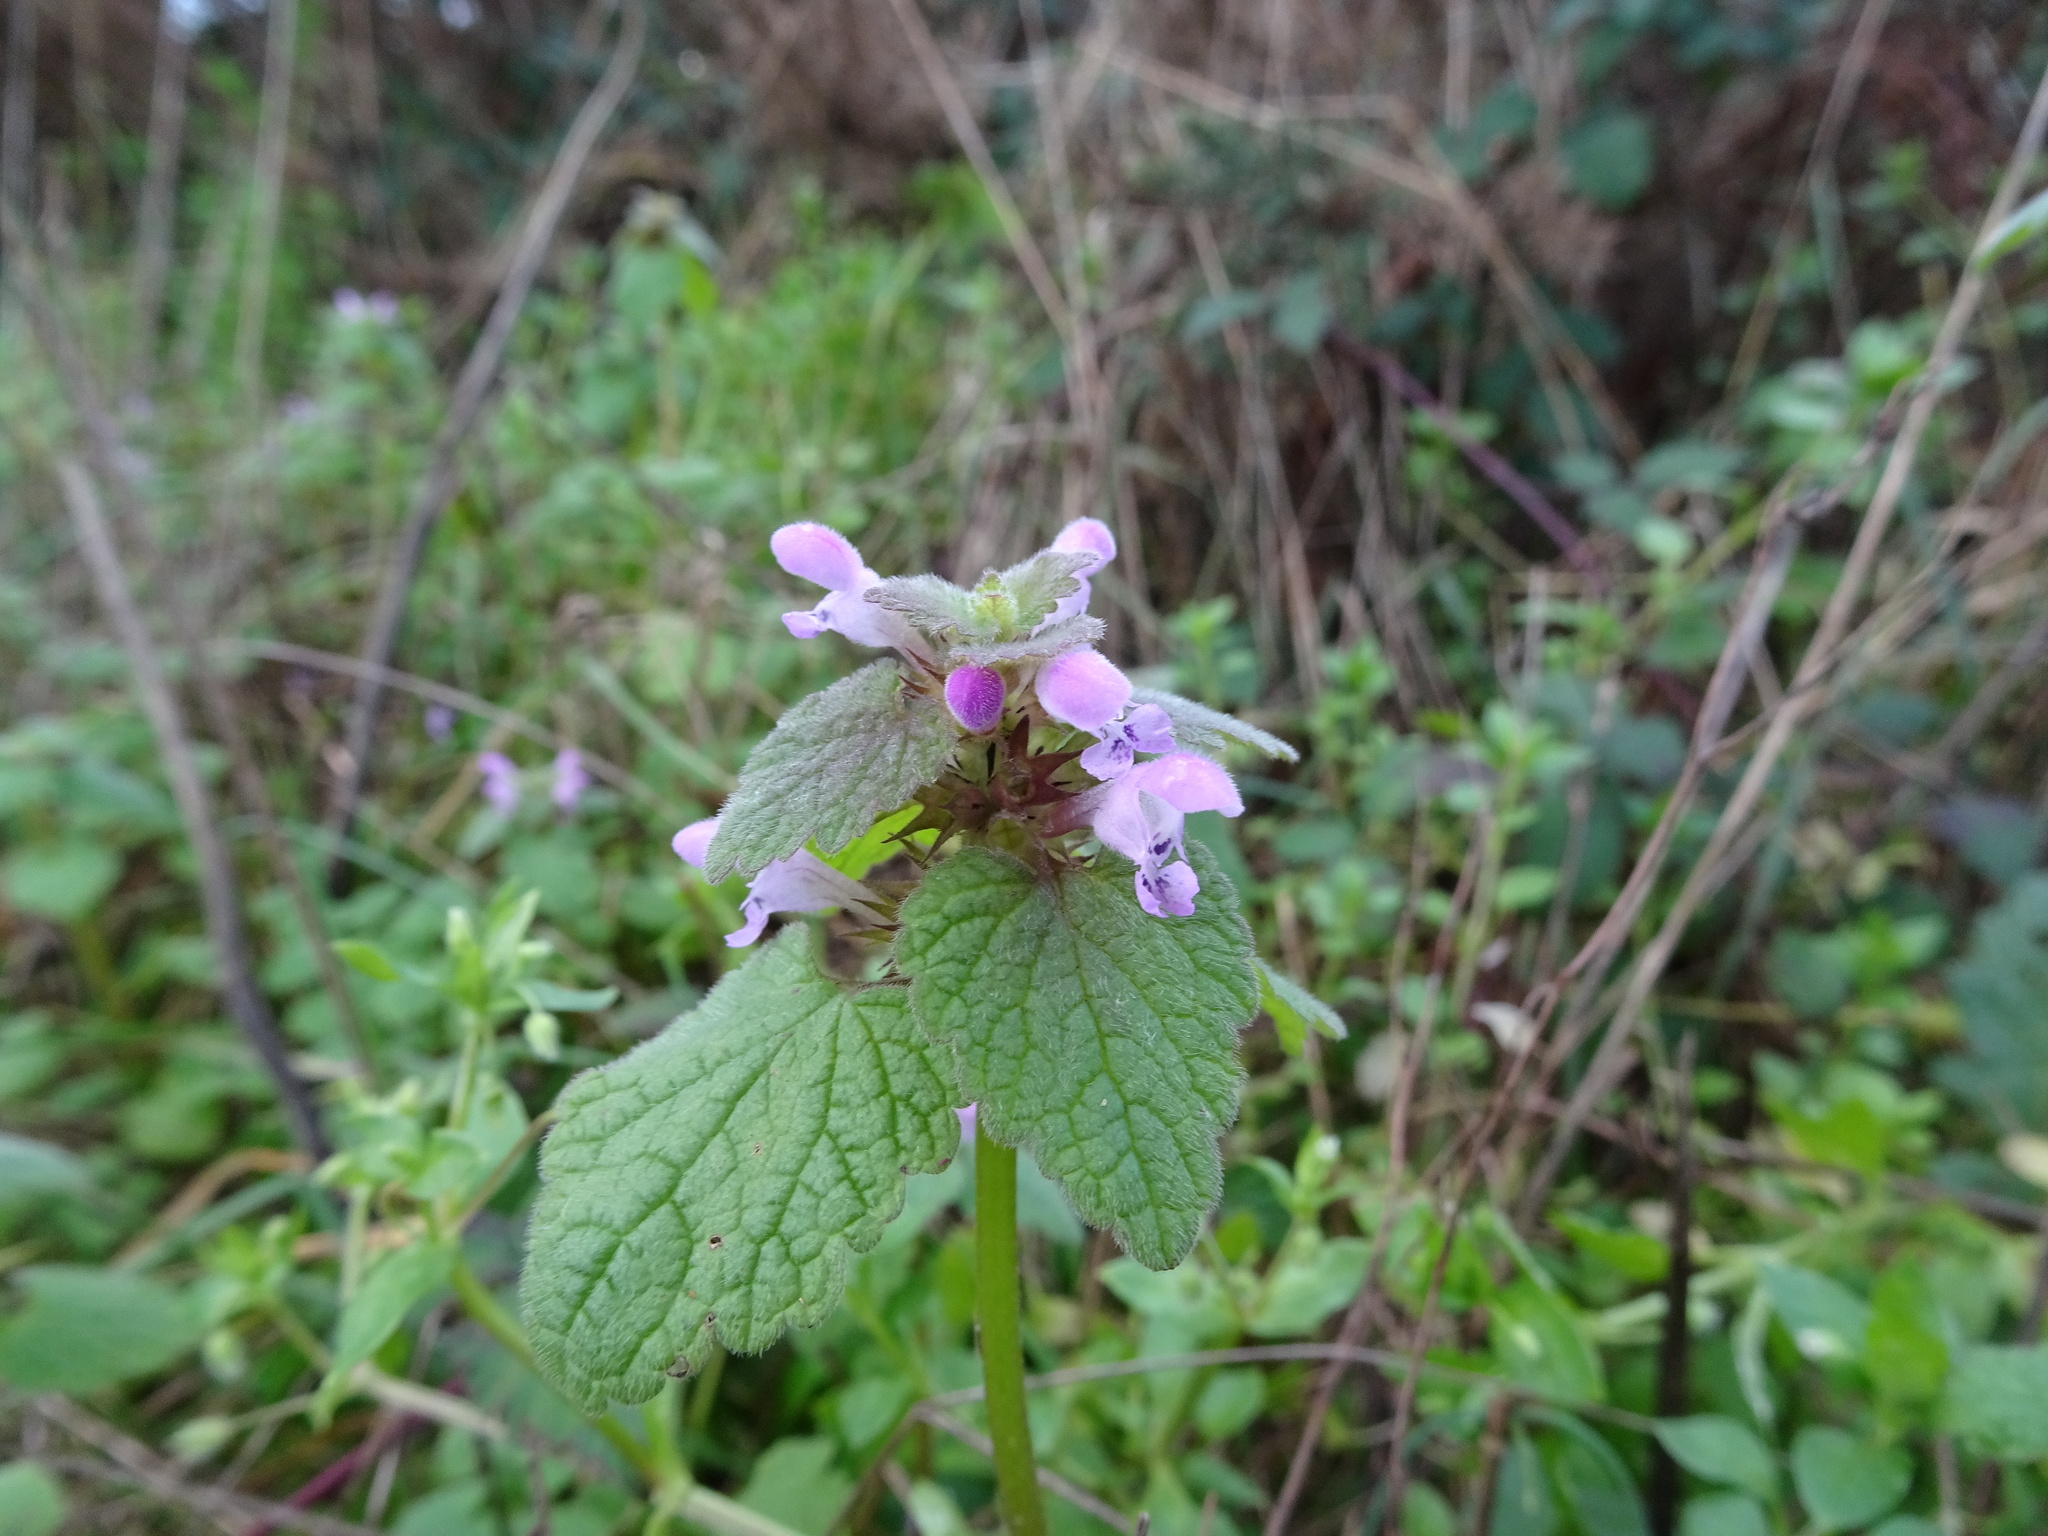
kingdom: Plantae
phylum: Tracheophyta
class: Magnoliopsida
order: Lamiales
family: Lamiaceae
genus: Lamium
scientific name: Lamium purpureum
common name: Red dead-nettle
